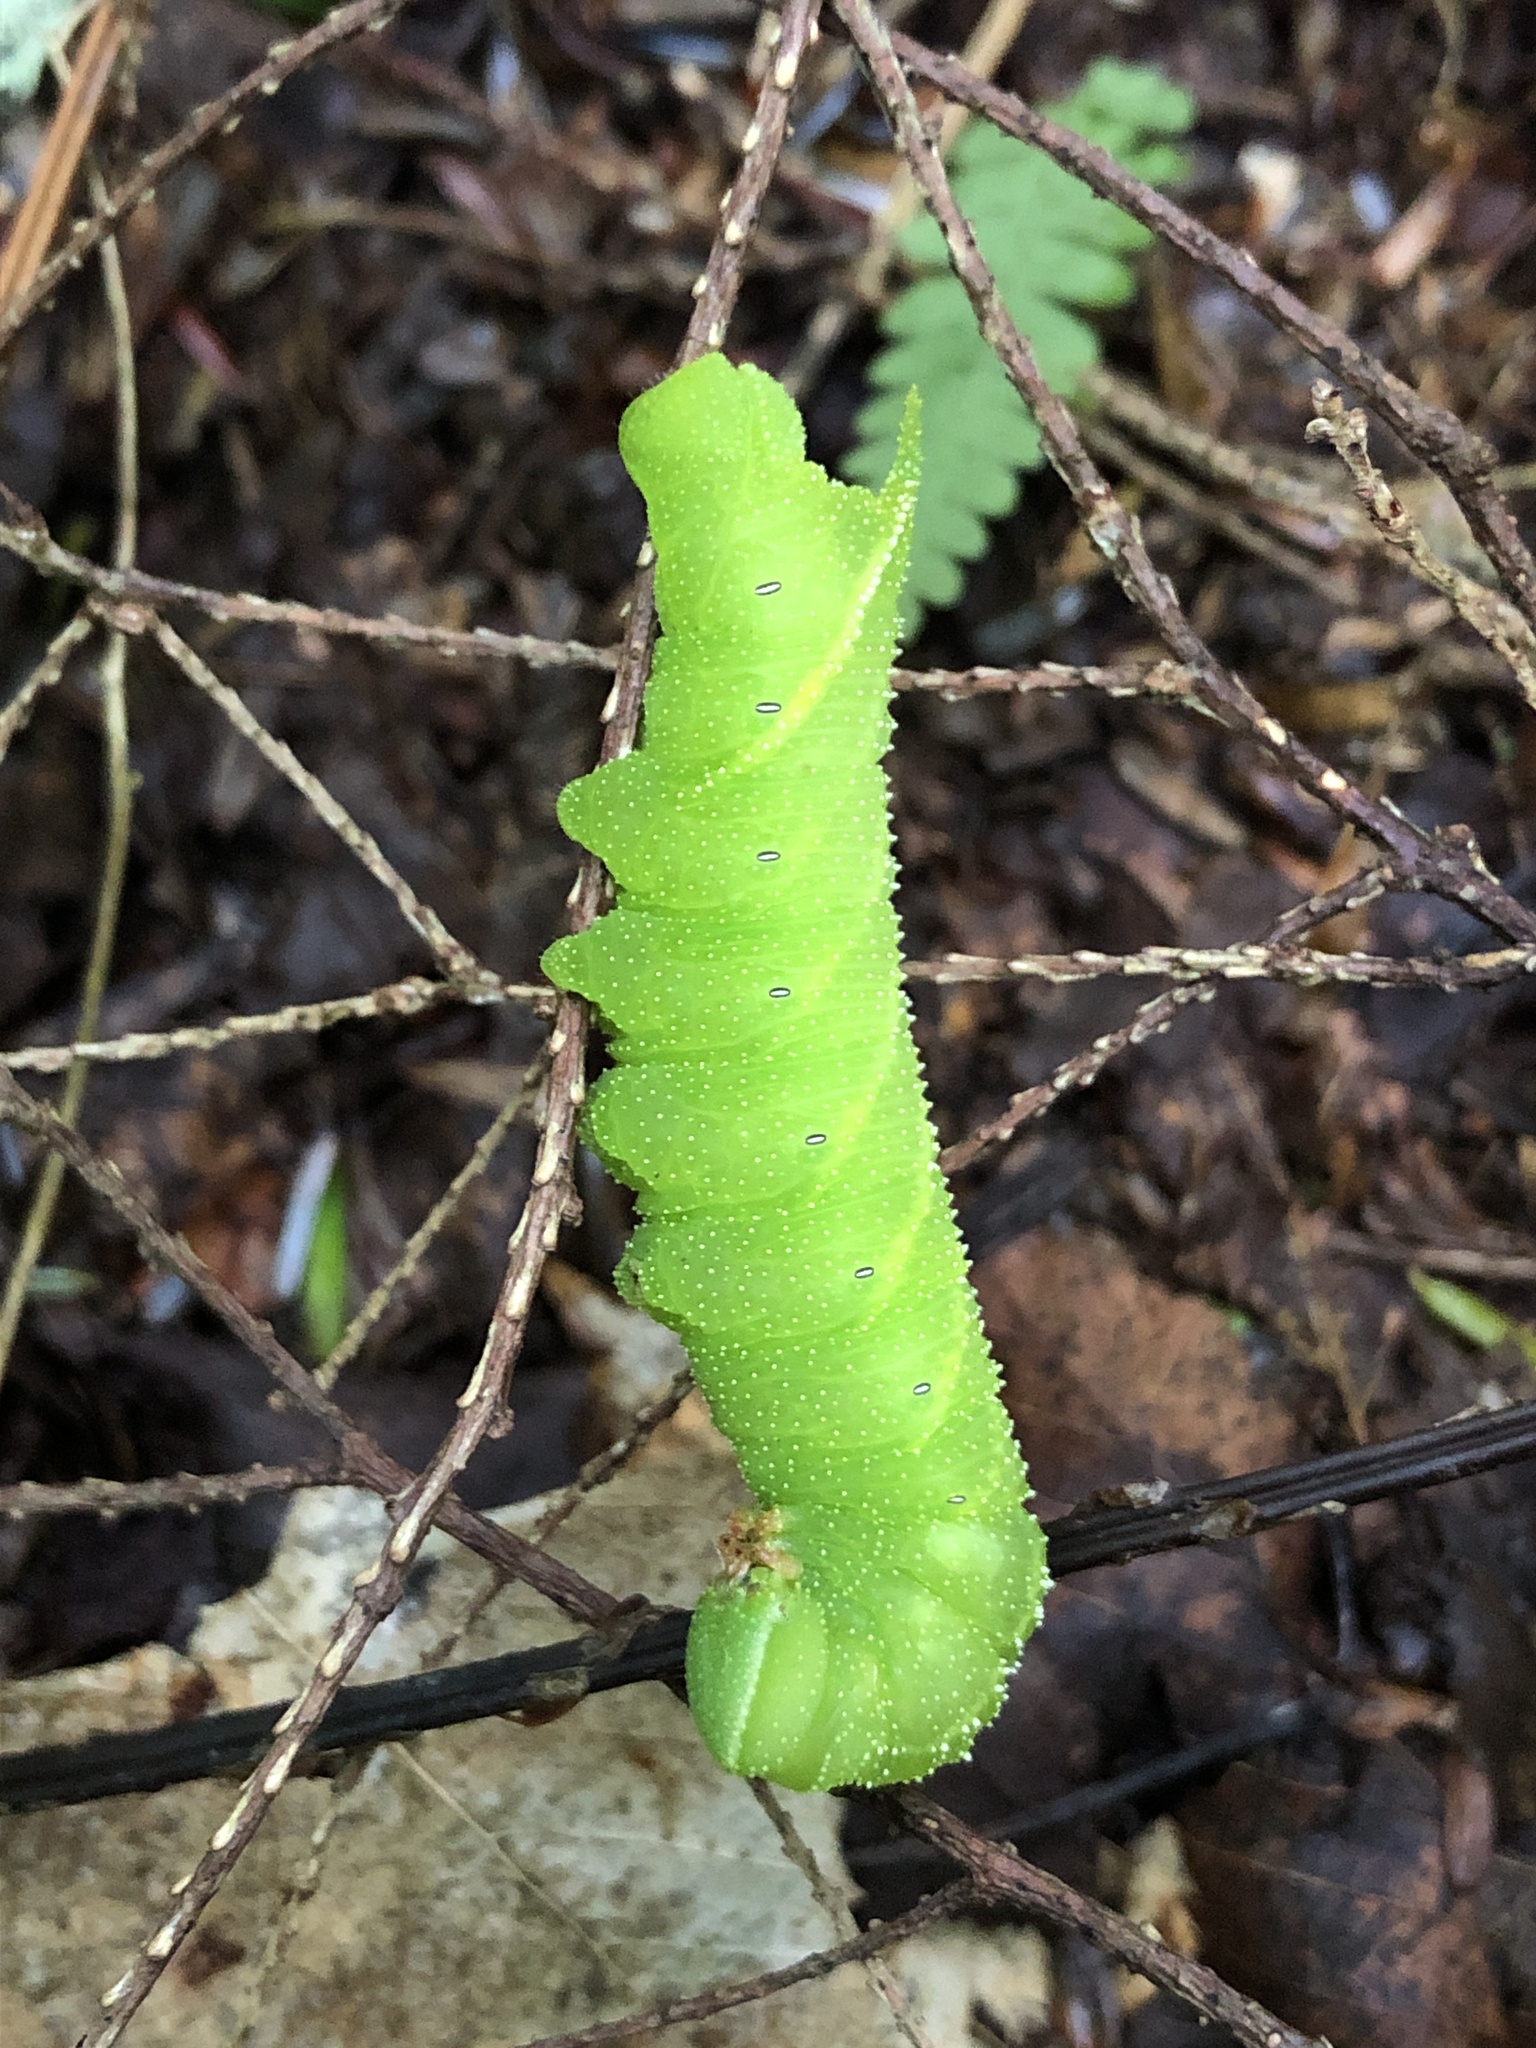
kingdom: Animalia
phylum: Arthropoda
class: Insecta
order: Lepidoptera
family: Sphingidae
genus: Paonias
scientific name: Paonias excaecata
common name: Blind-eyed sphinx
